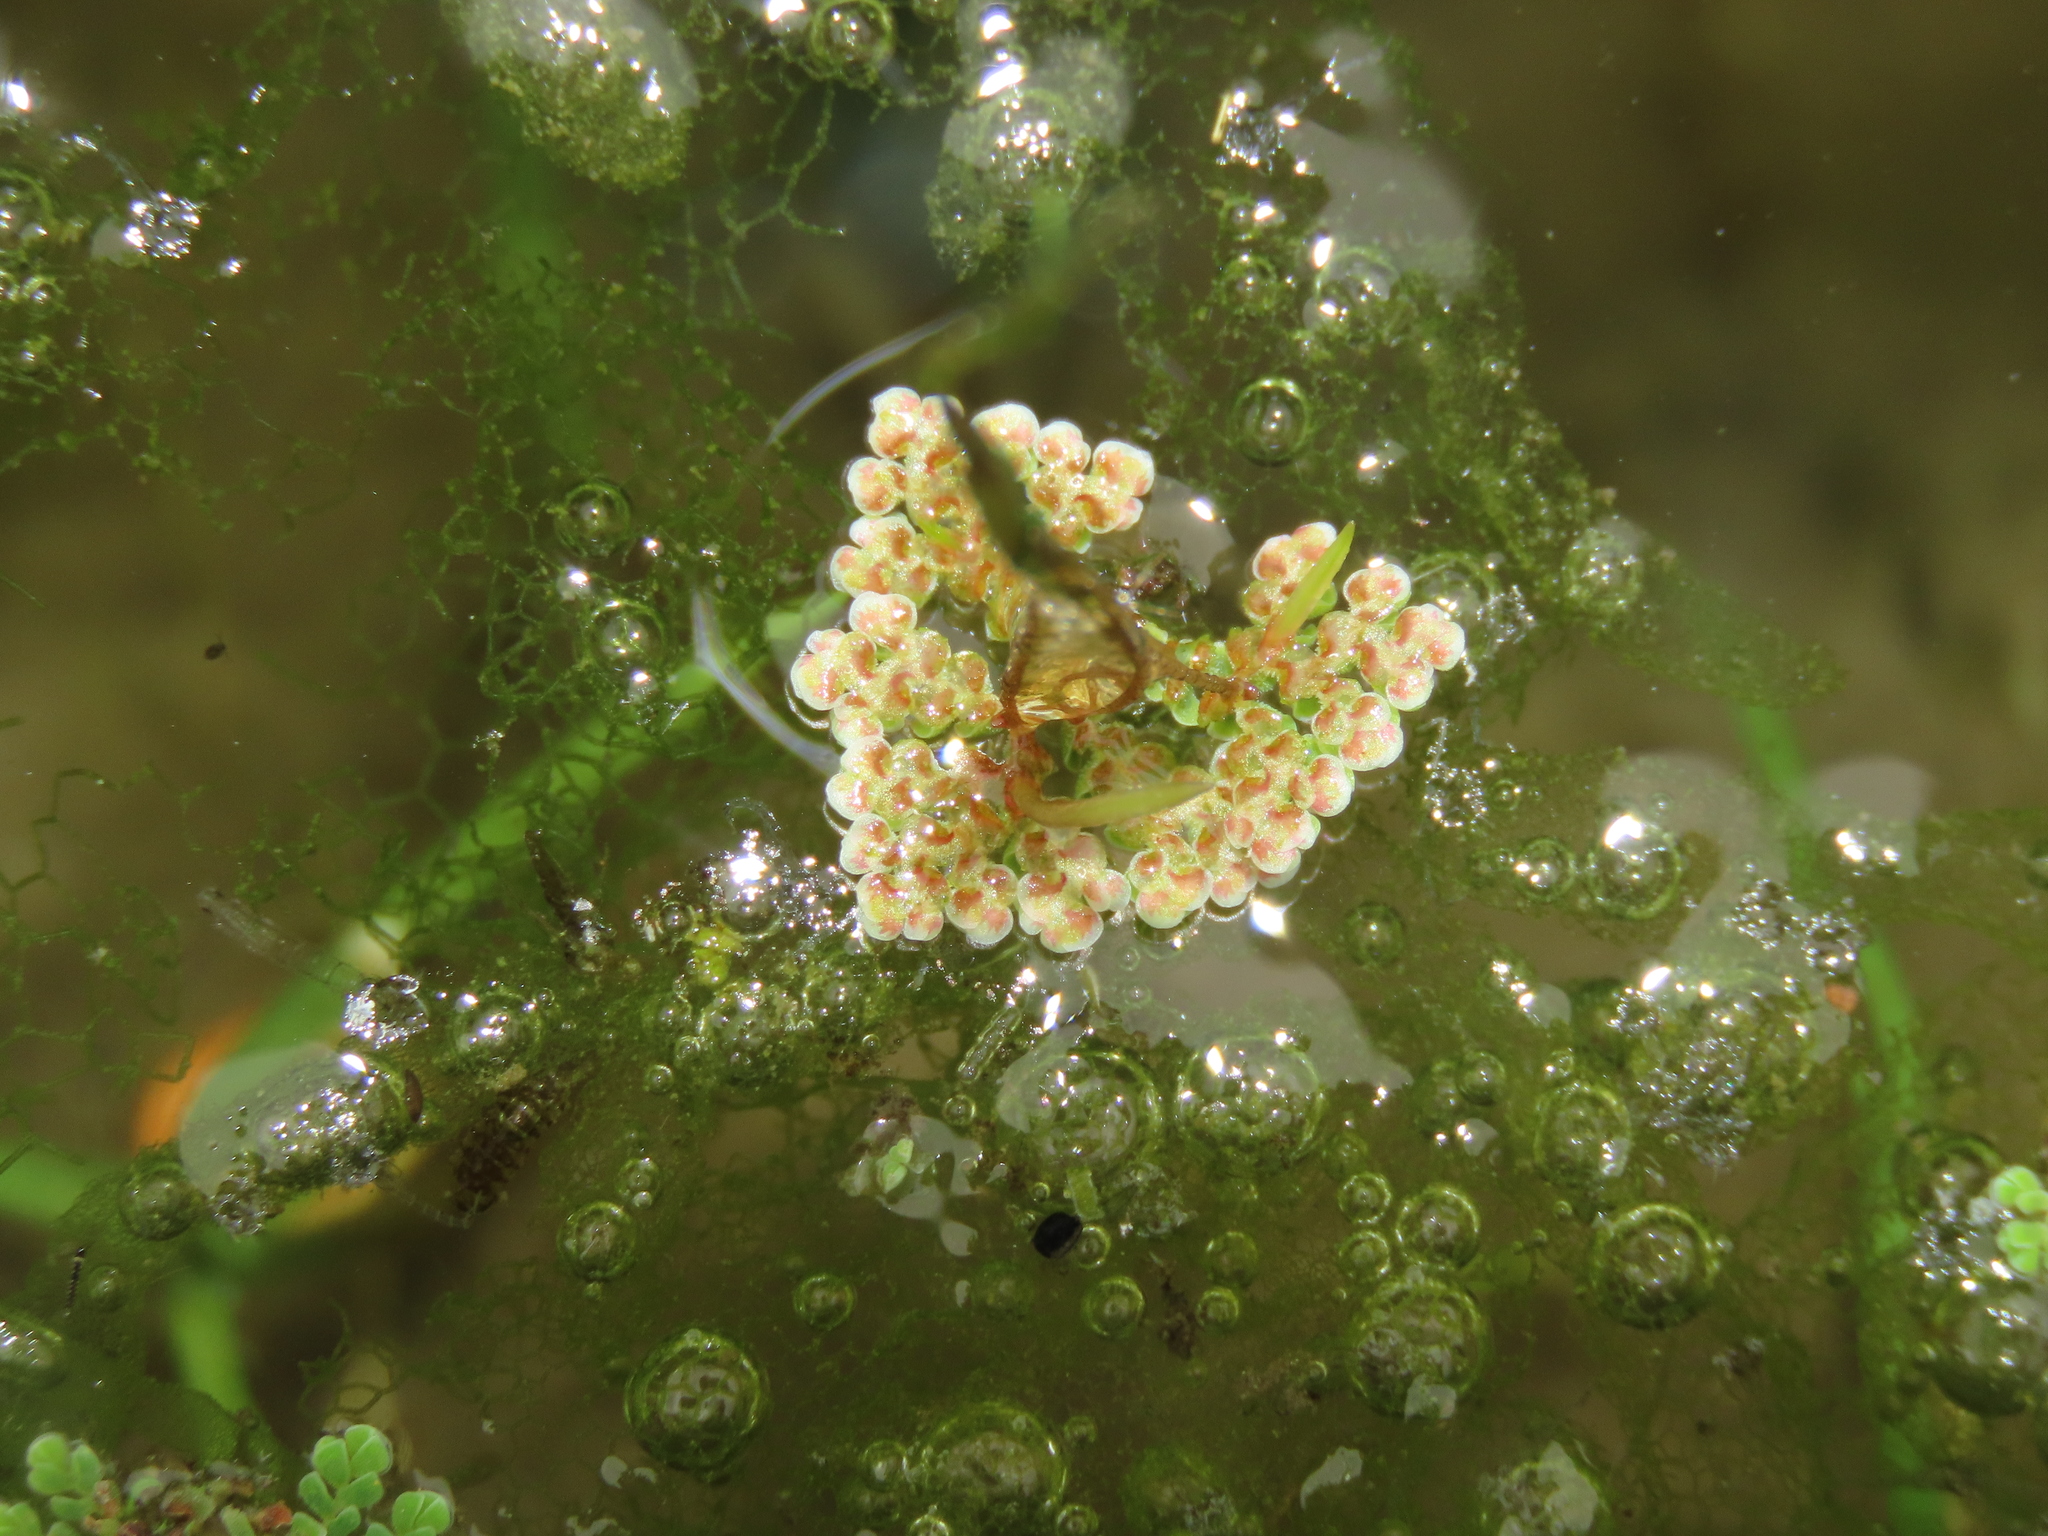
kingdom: Plantae
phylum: Tracheophyta
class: Polypodiopsida
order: Salviniales
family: Salviniaceae
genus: Azolla
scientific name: Azolla pinnata
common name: Ferny azolla
